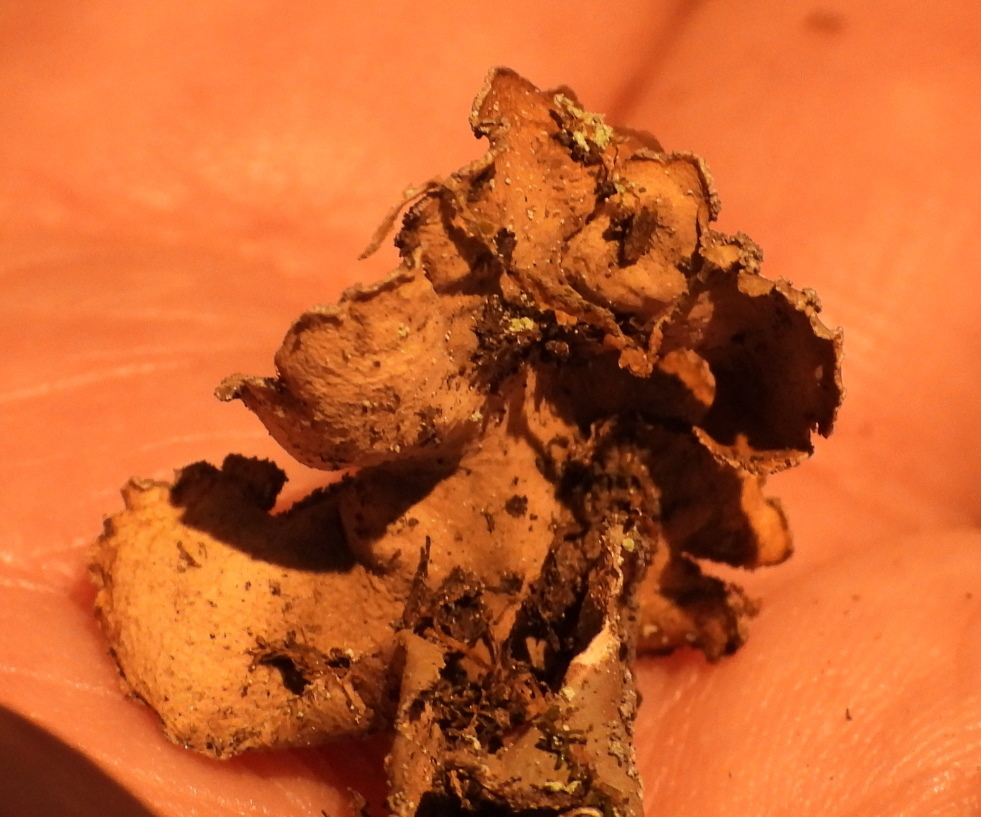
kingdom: Fungi
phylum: Ascomycota
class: Lecanoromycetes
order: Peltigerales
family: Nephromataceae
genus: Nephroma
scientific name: Nephroma parile
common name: Powdery kidney lichen
